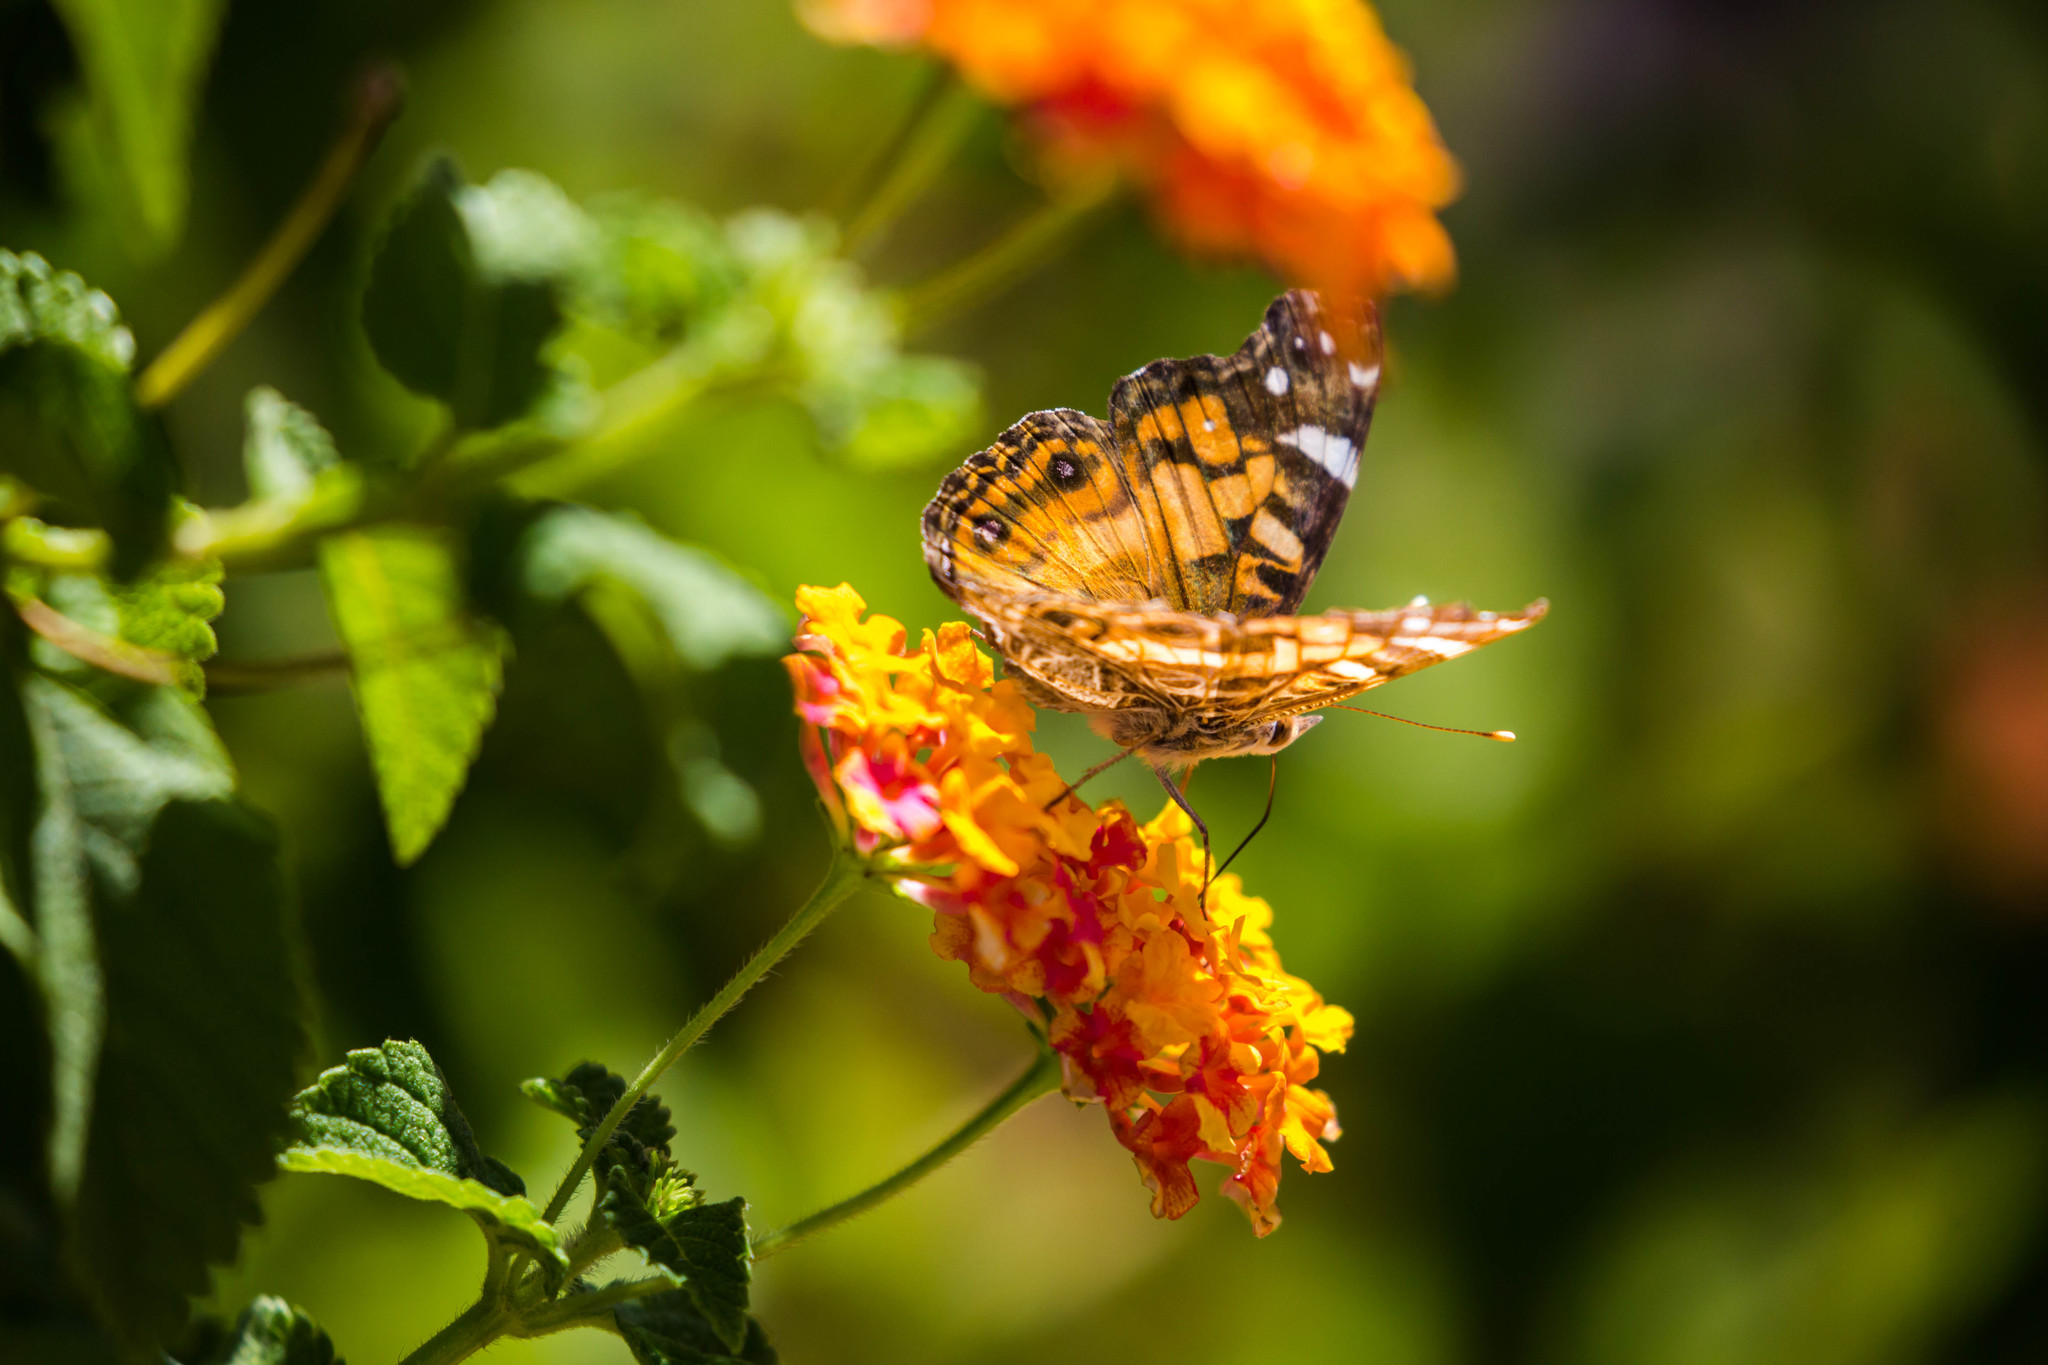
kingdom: Animalia
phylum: Arthropoda
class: Insecta
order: Lepidoptera
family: Nymphalidae
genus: Vanessa
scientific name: Vanessa virginiensis
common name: American lady
